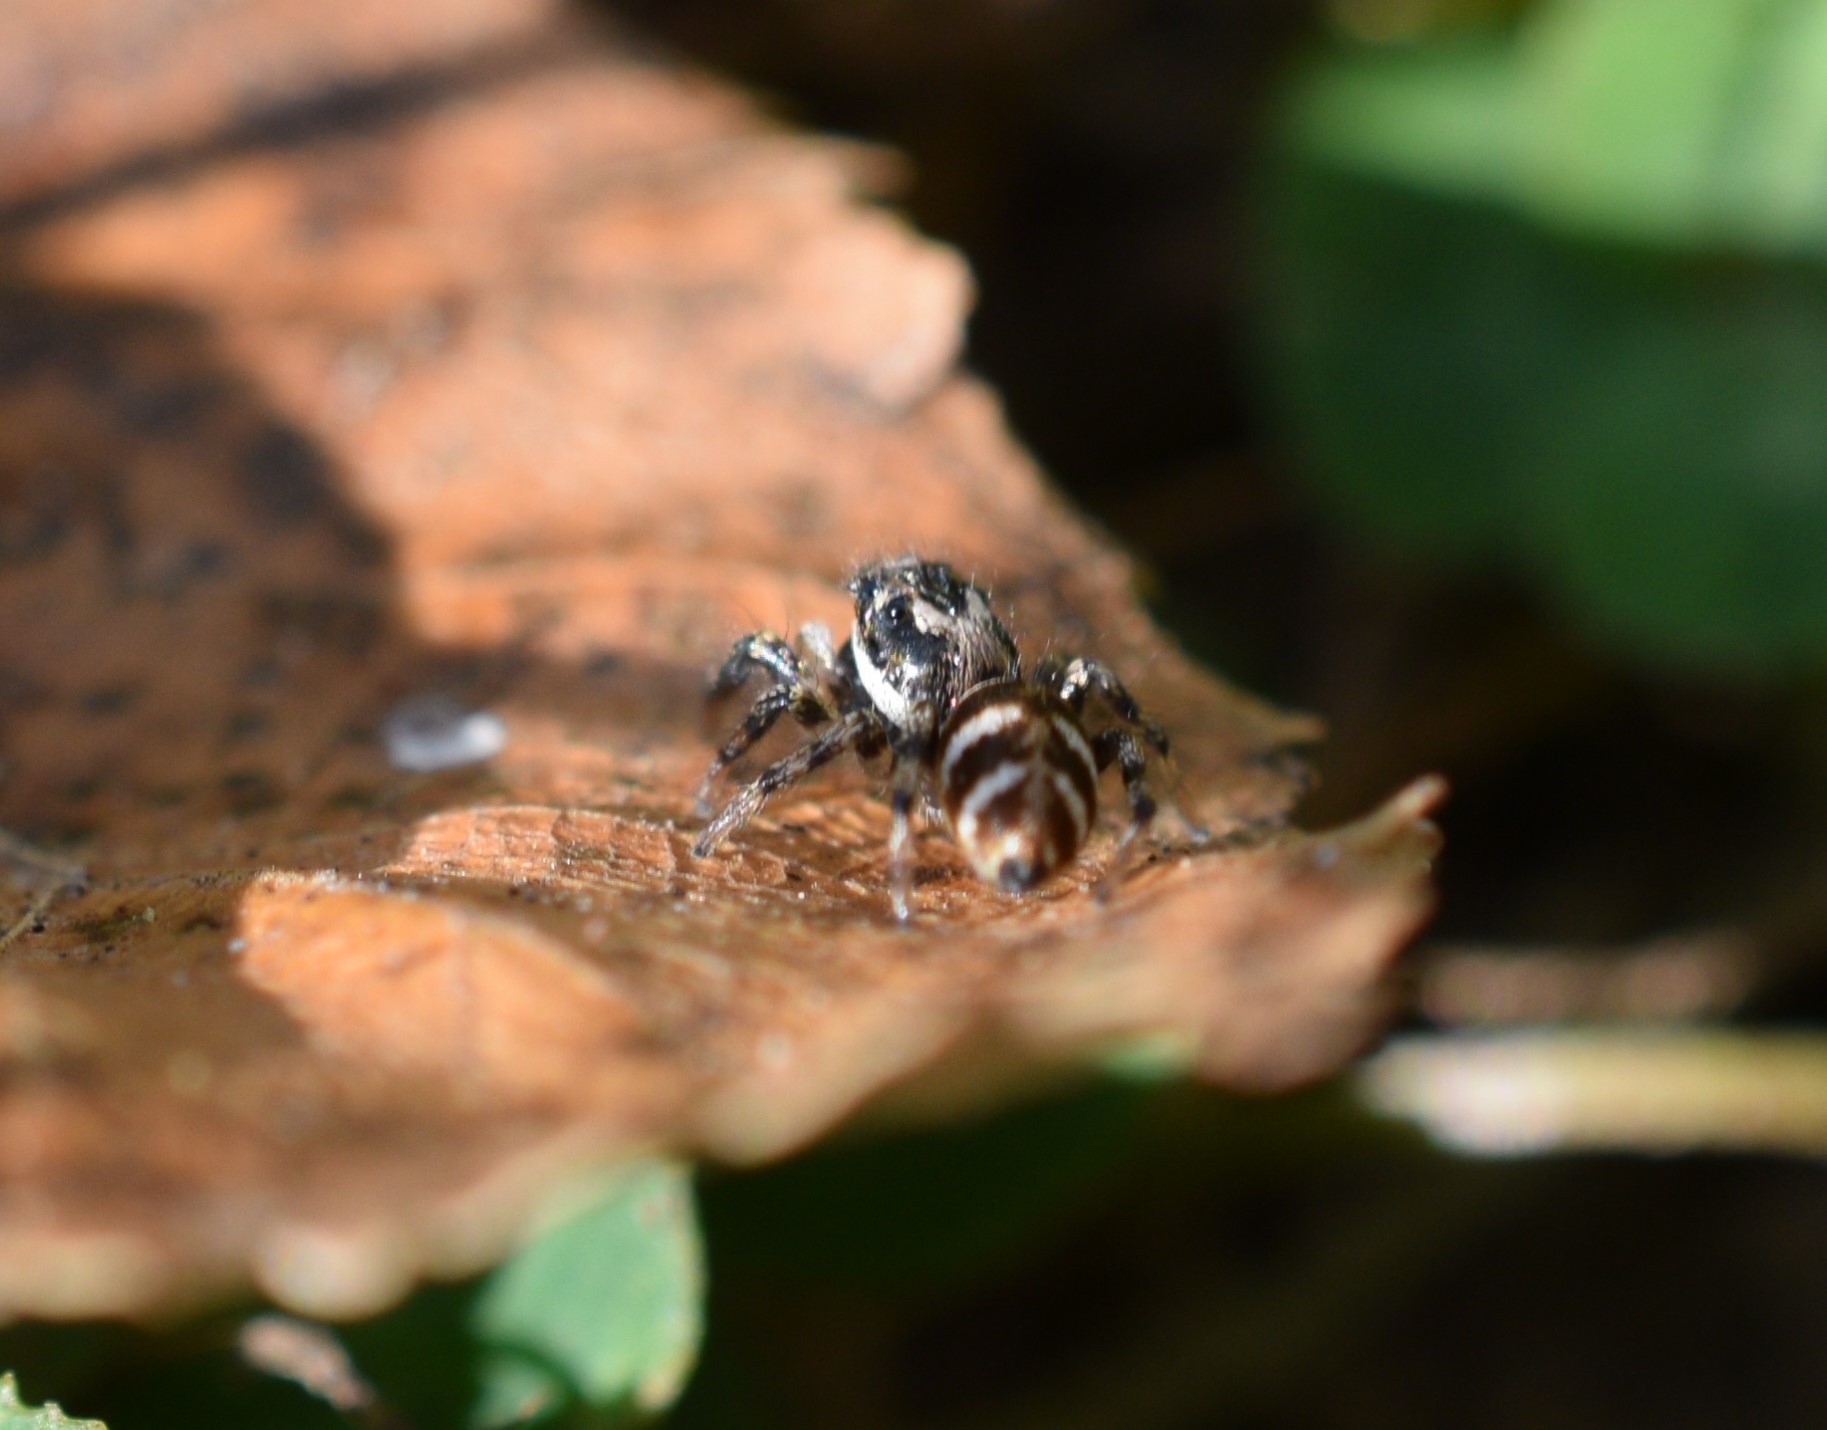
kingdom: Animalia
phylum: Arthropoda
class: Arachnida
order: Araneae
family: Salticidae
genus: Salticus
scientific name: Salticus scenicus
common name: Zebra jumper
